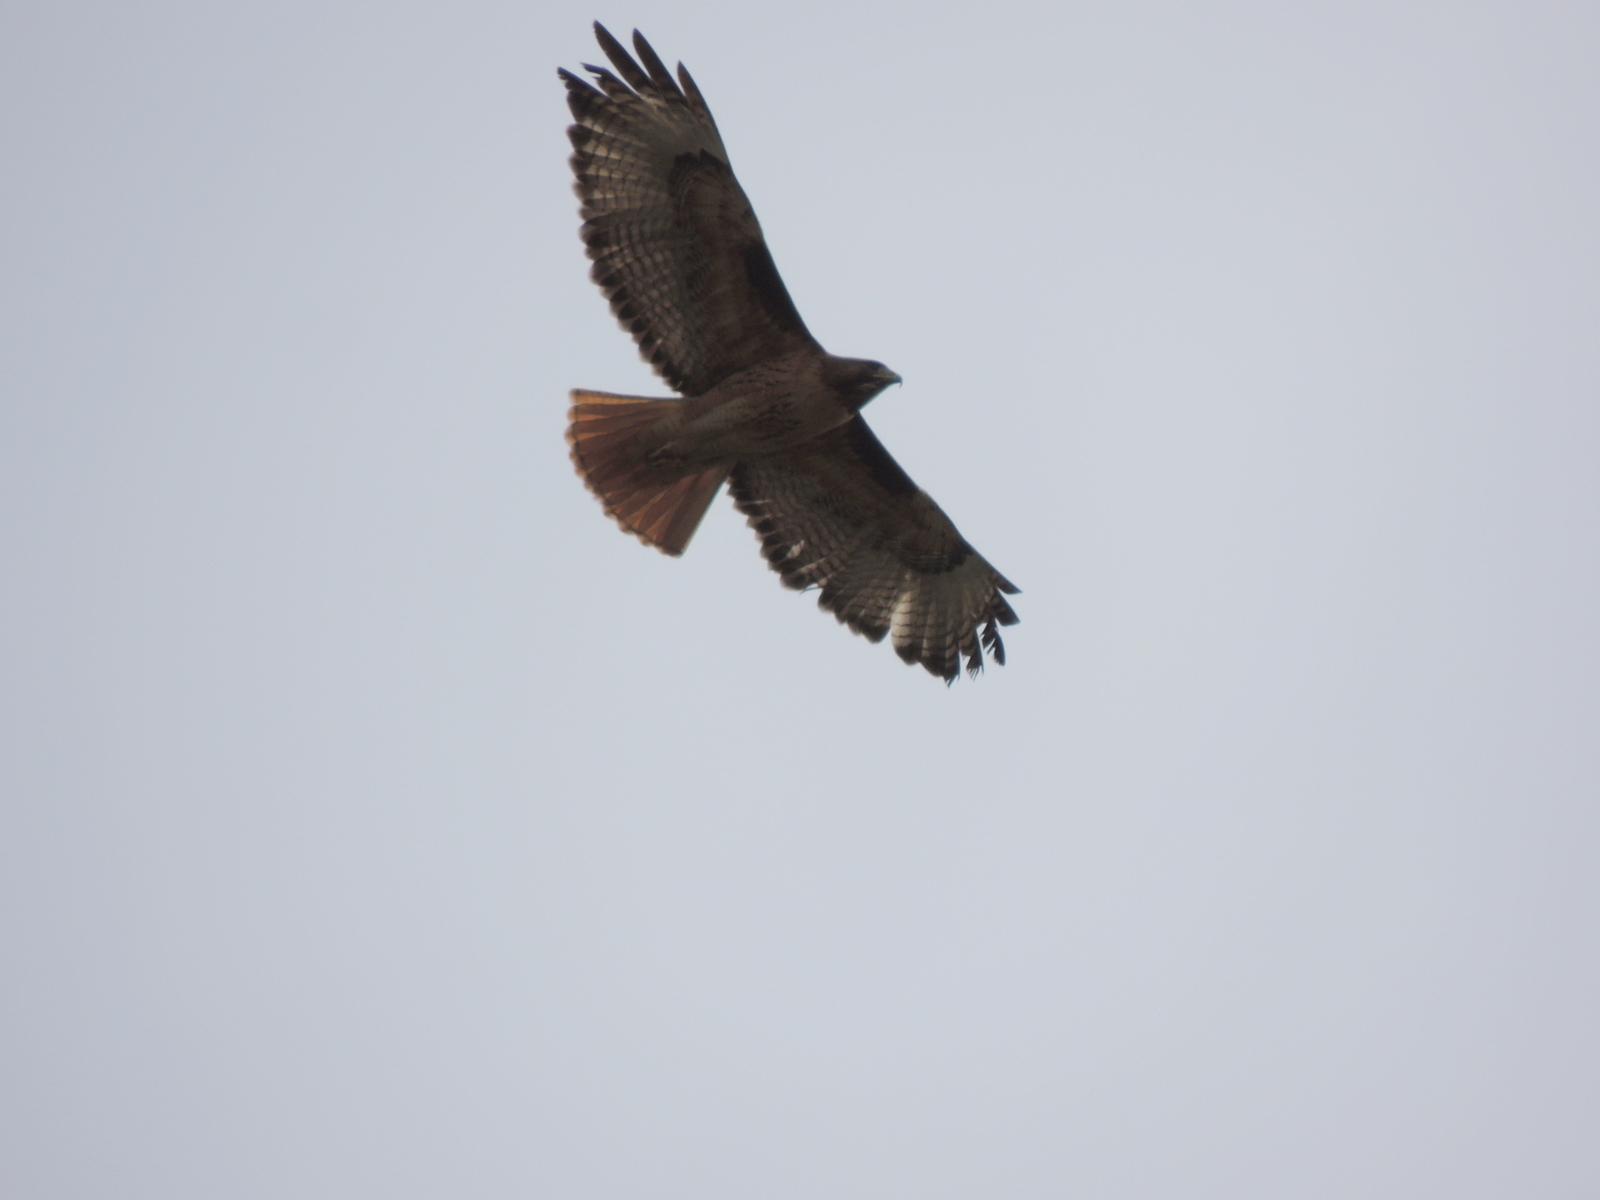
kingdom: Animalia
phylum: Chordata
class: Aves
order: Accipitriformes
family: Accipitridae
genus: Buteo
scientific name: Buteo jamaicensis
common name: Red-tailed hawk
